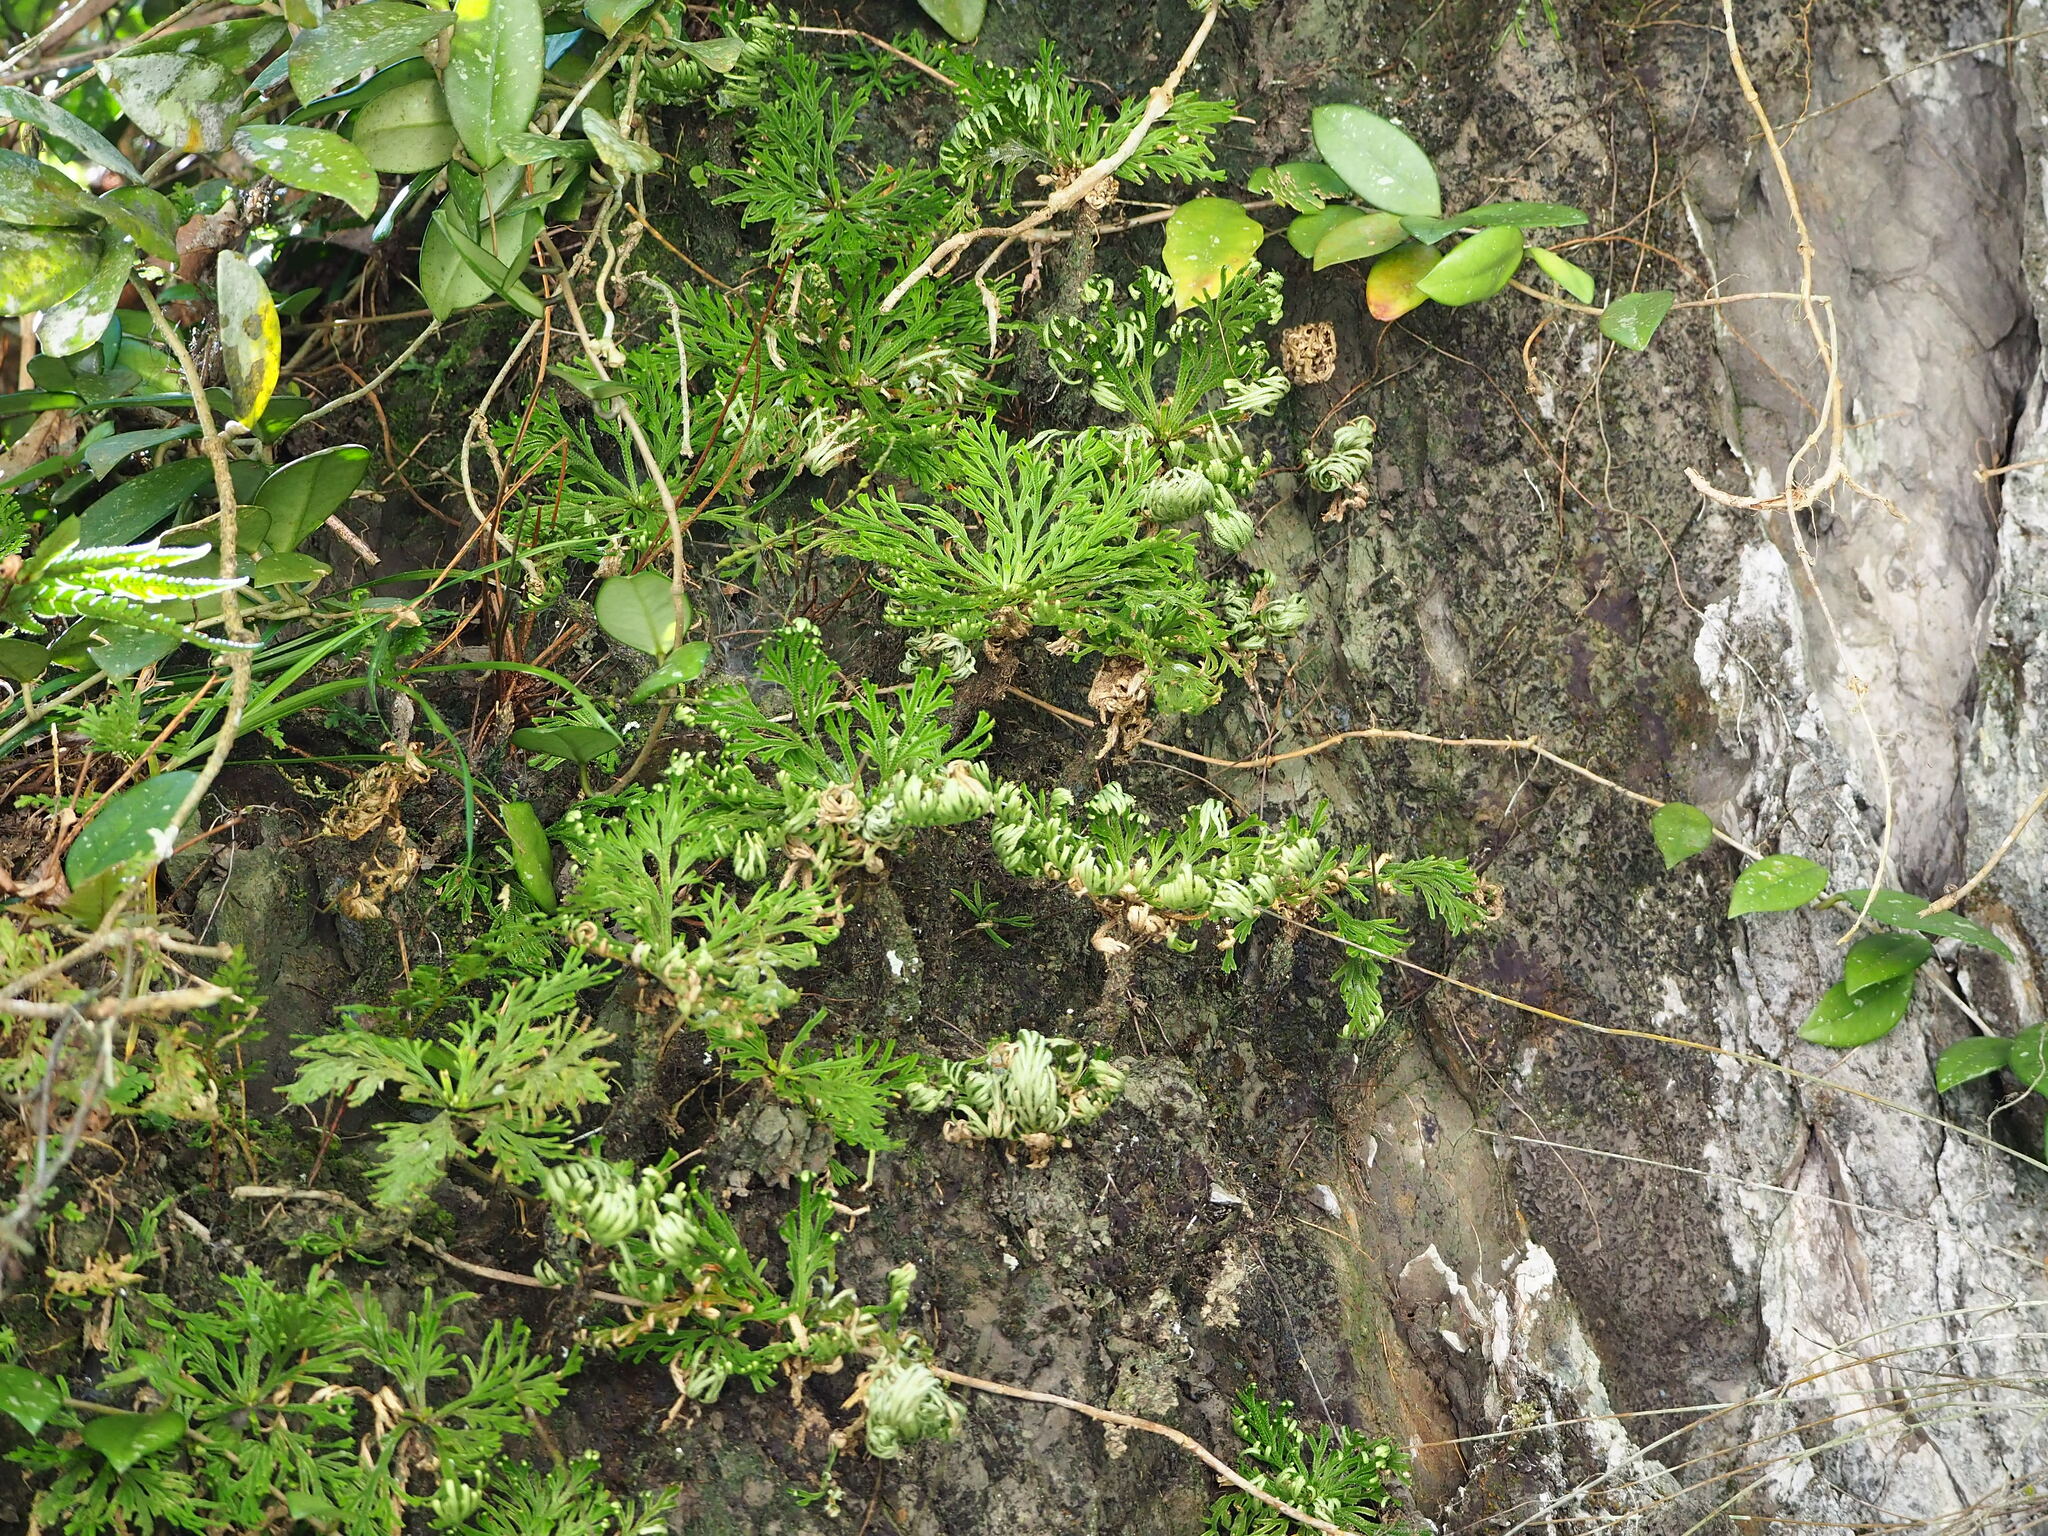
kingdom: Plantae
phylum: Tracheophyta
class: Lycopodiopsida
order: Selaginellales
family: Selaginellaceae
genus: Selaginella
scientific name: Selaginella tamariscina
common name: Little-club-moss
